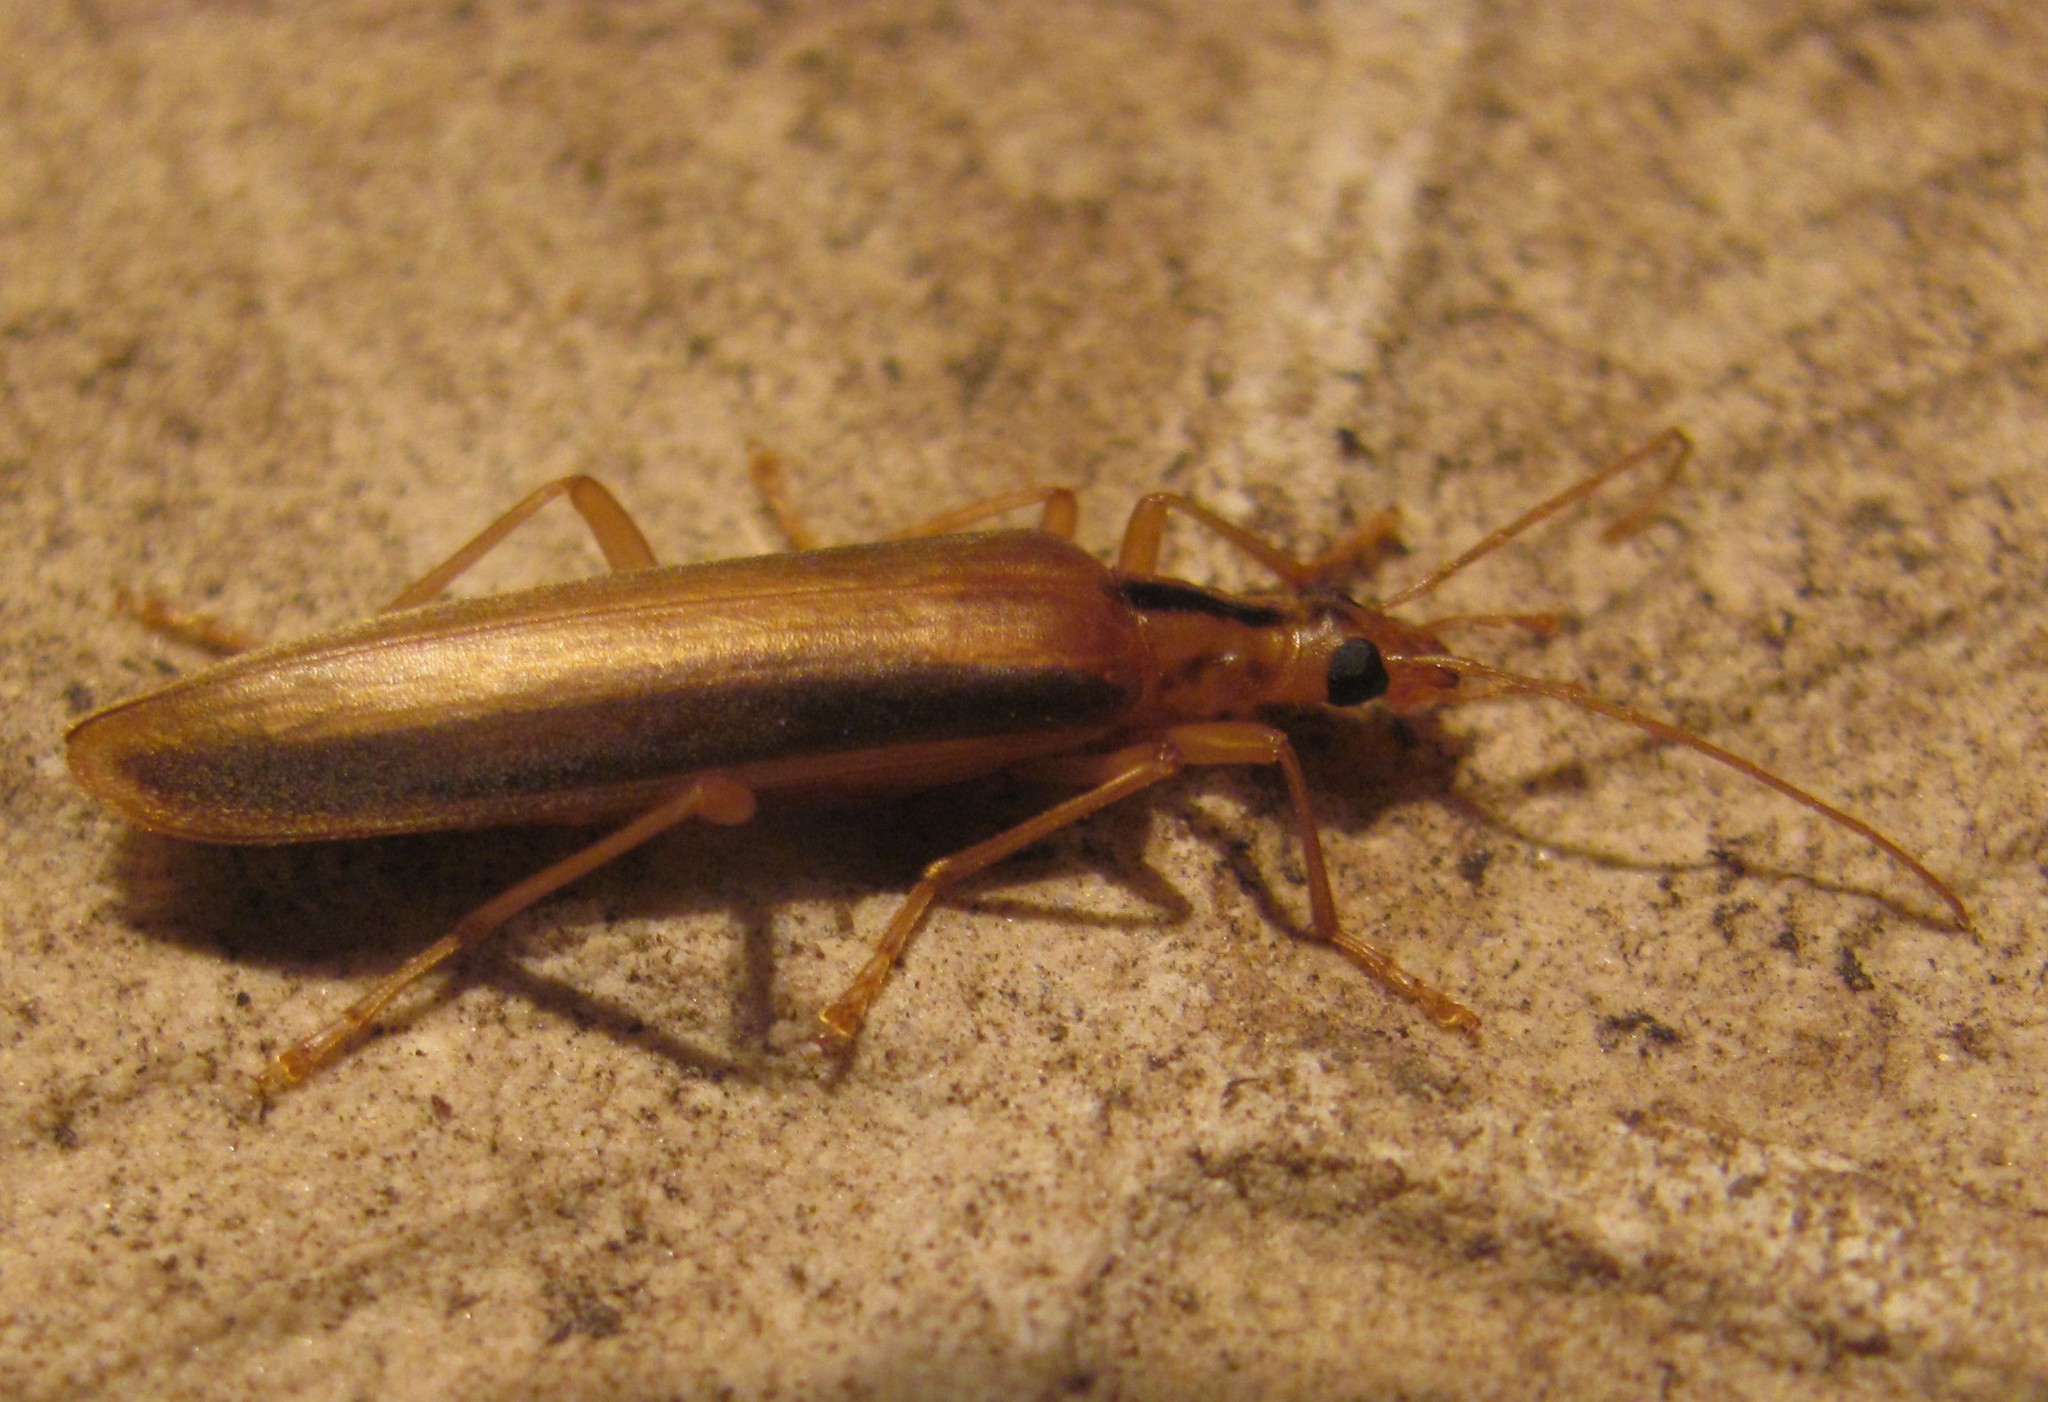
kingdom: Animalia
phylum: Arthropoda
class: Insecta
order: Coleoptera
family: Oedemeridae
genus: Thelyphassa
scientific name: Thelyphassa
